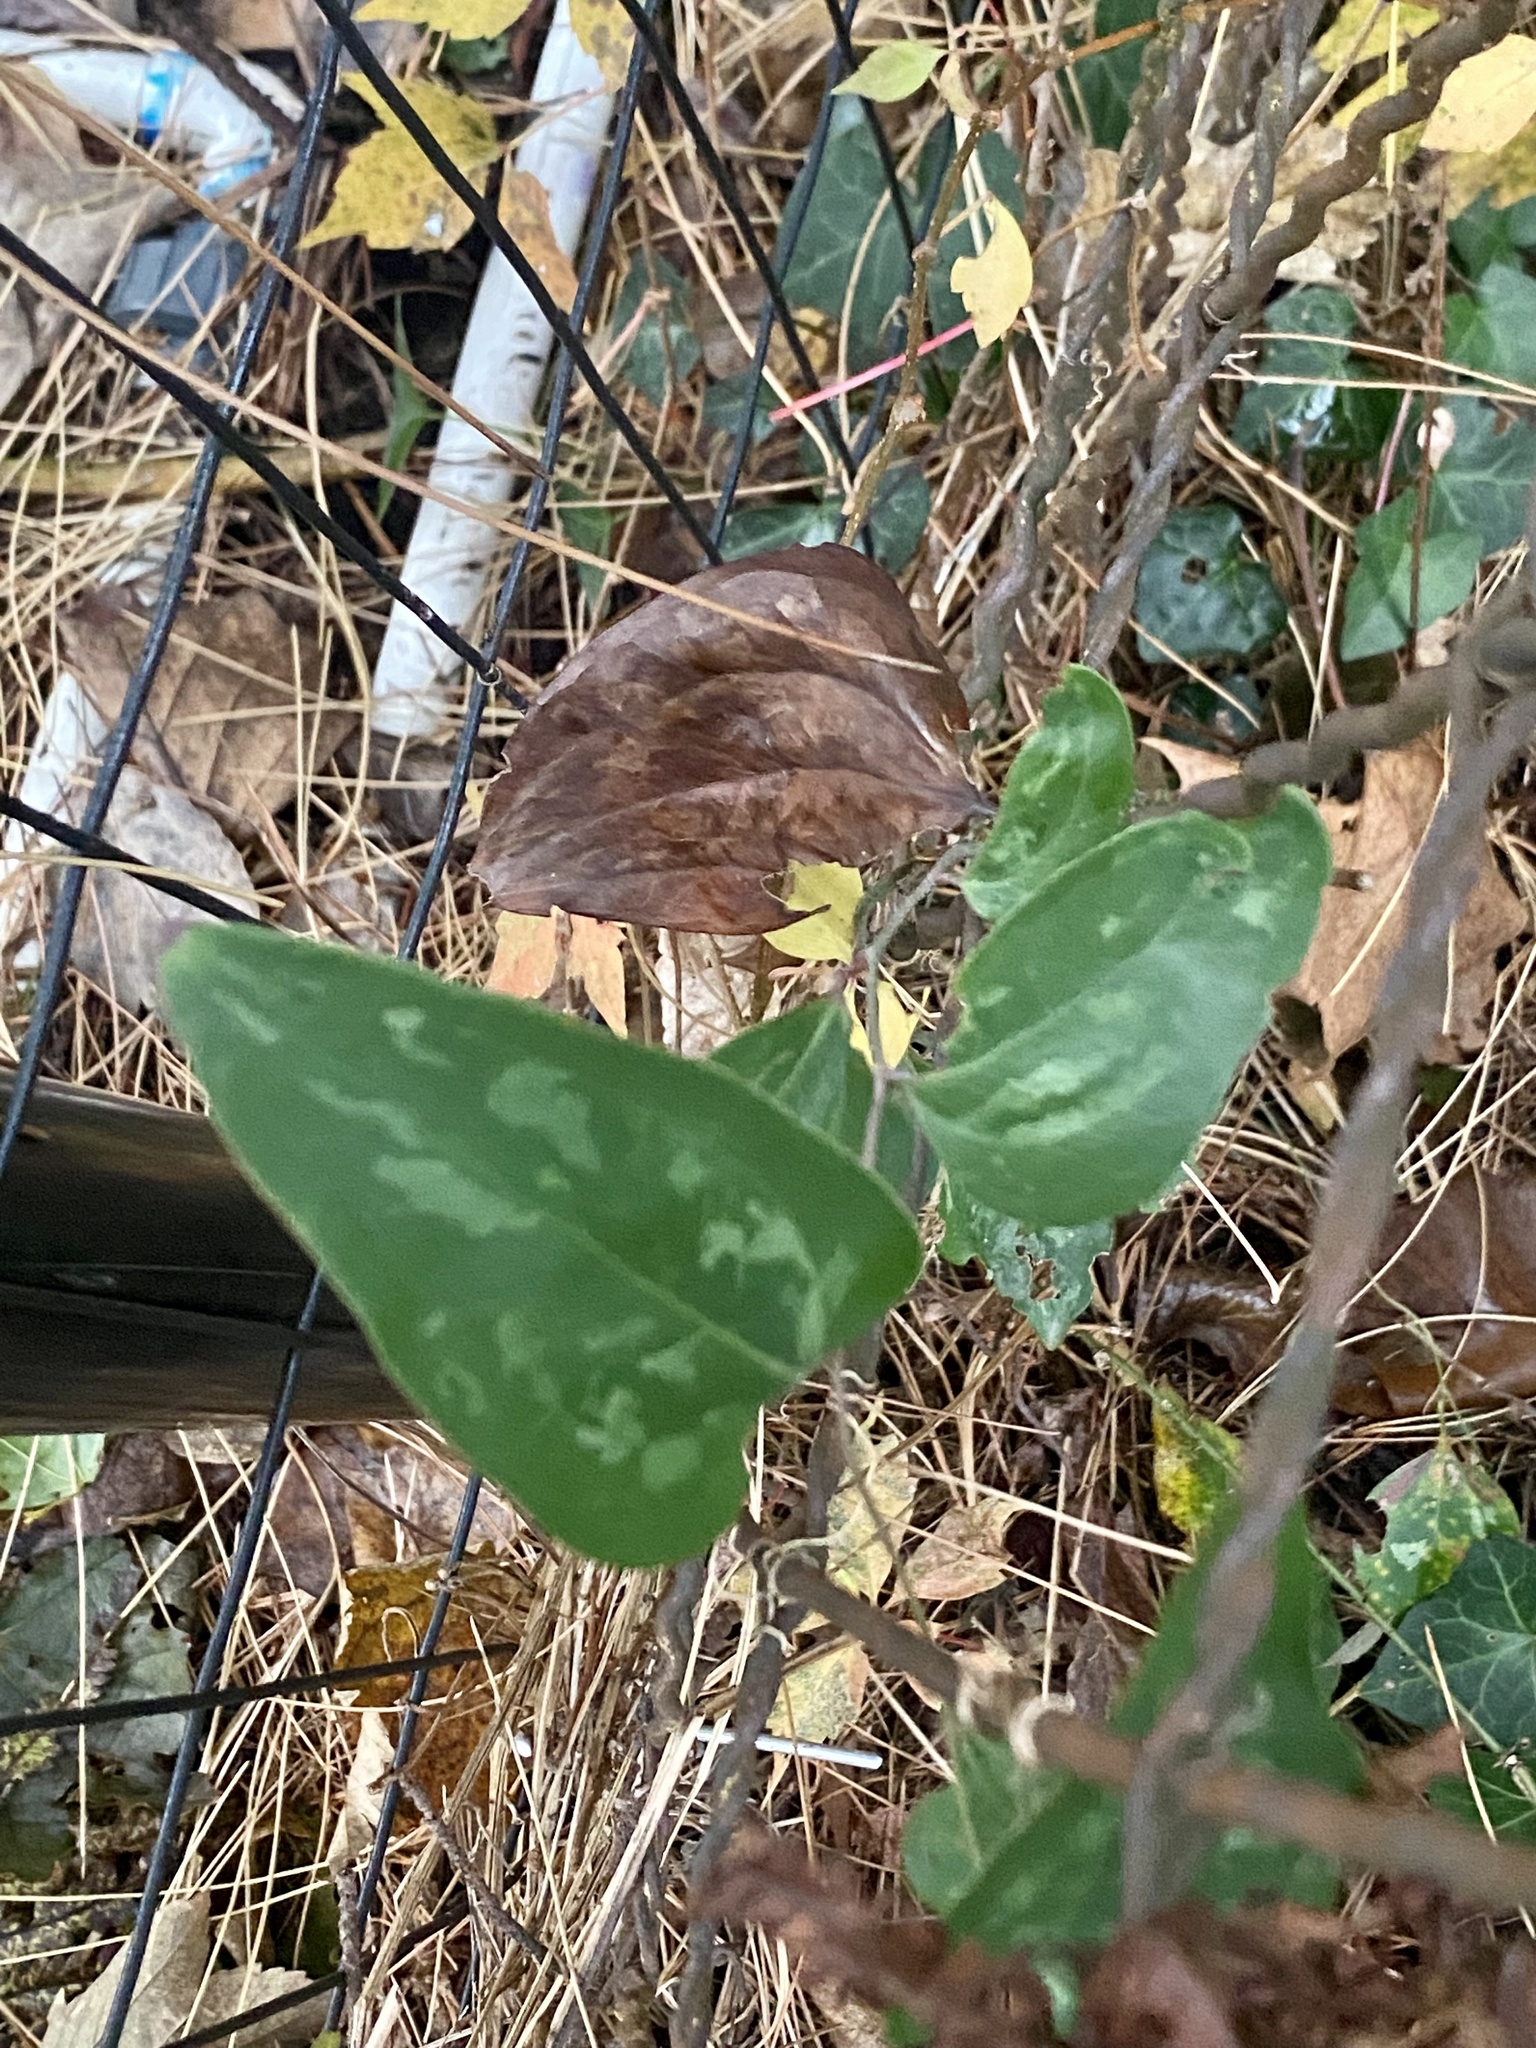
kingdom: Plantae
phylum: Tracheophyta
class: Liliopsida
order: Liliales
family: Smilacaceae
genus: Smilax
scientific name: Smilax glauca
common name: Cat greenbrier
